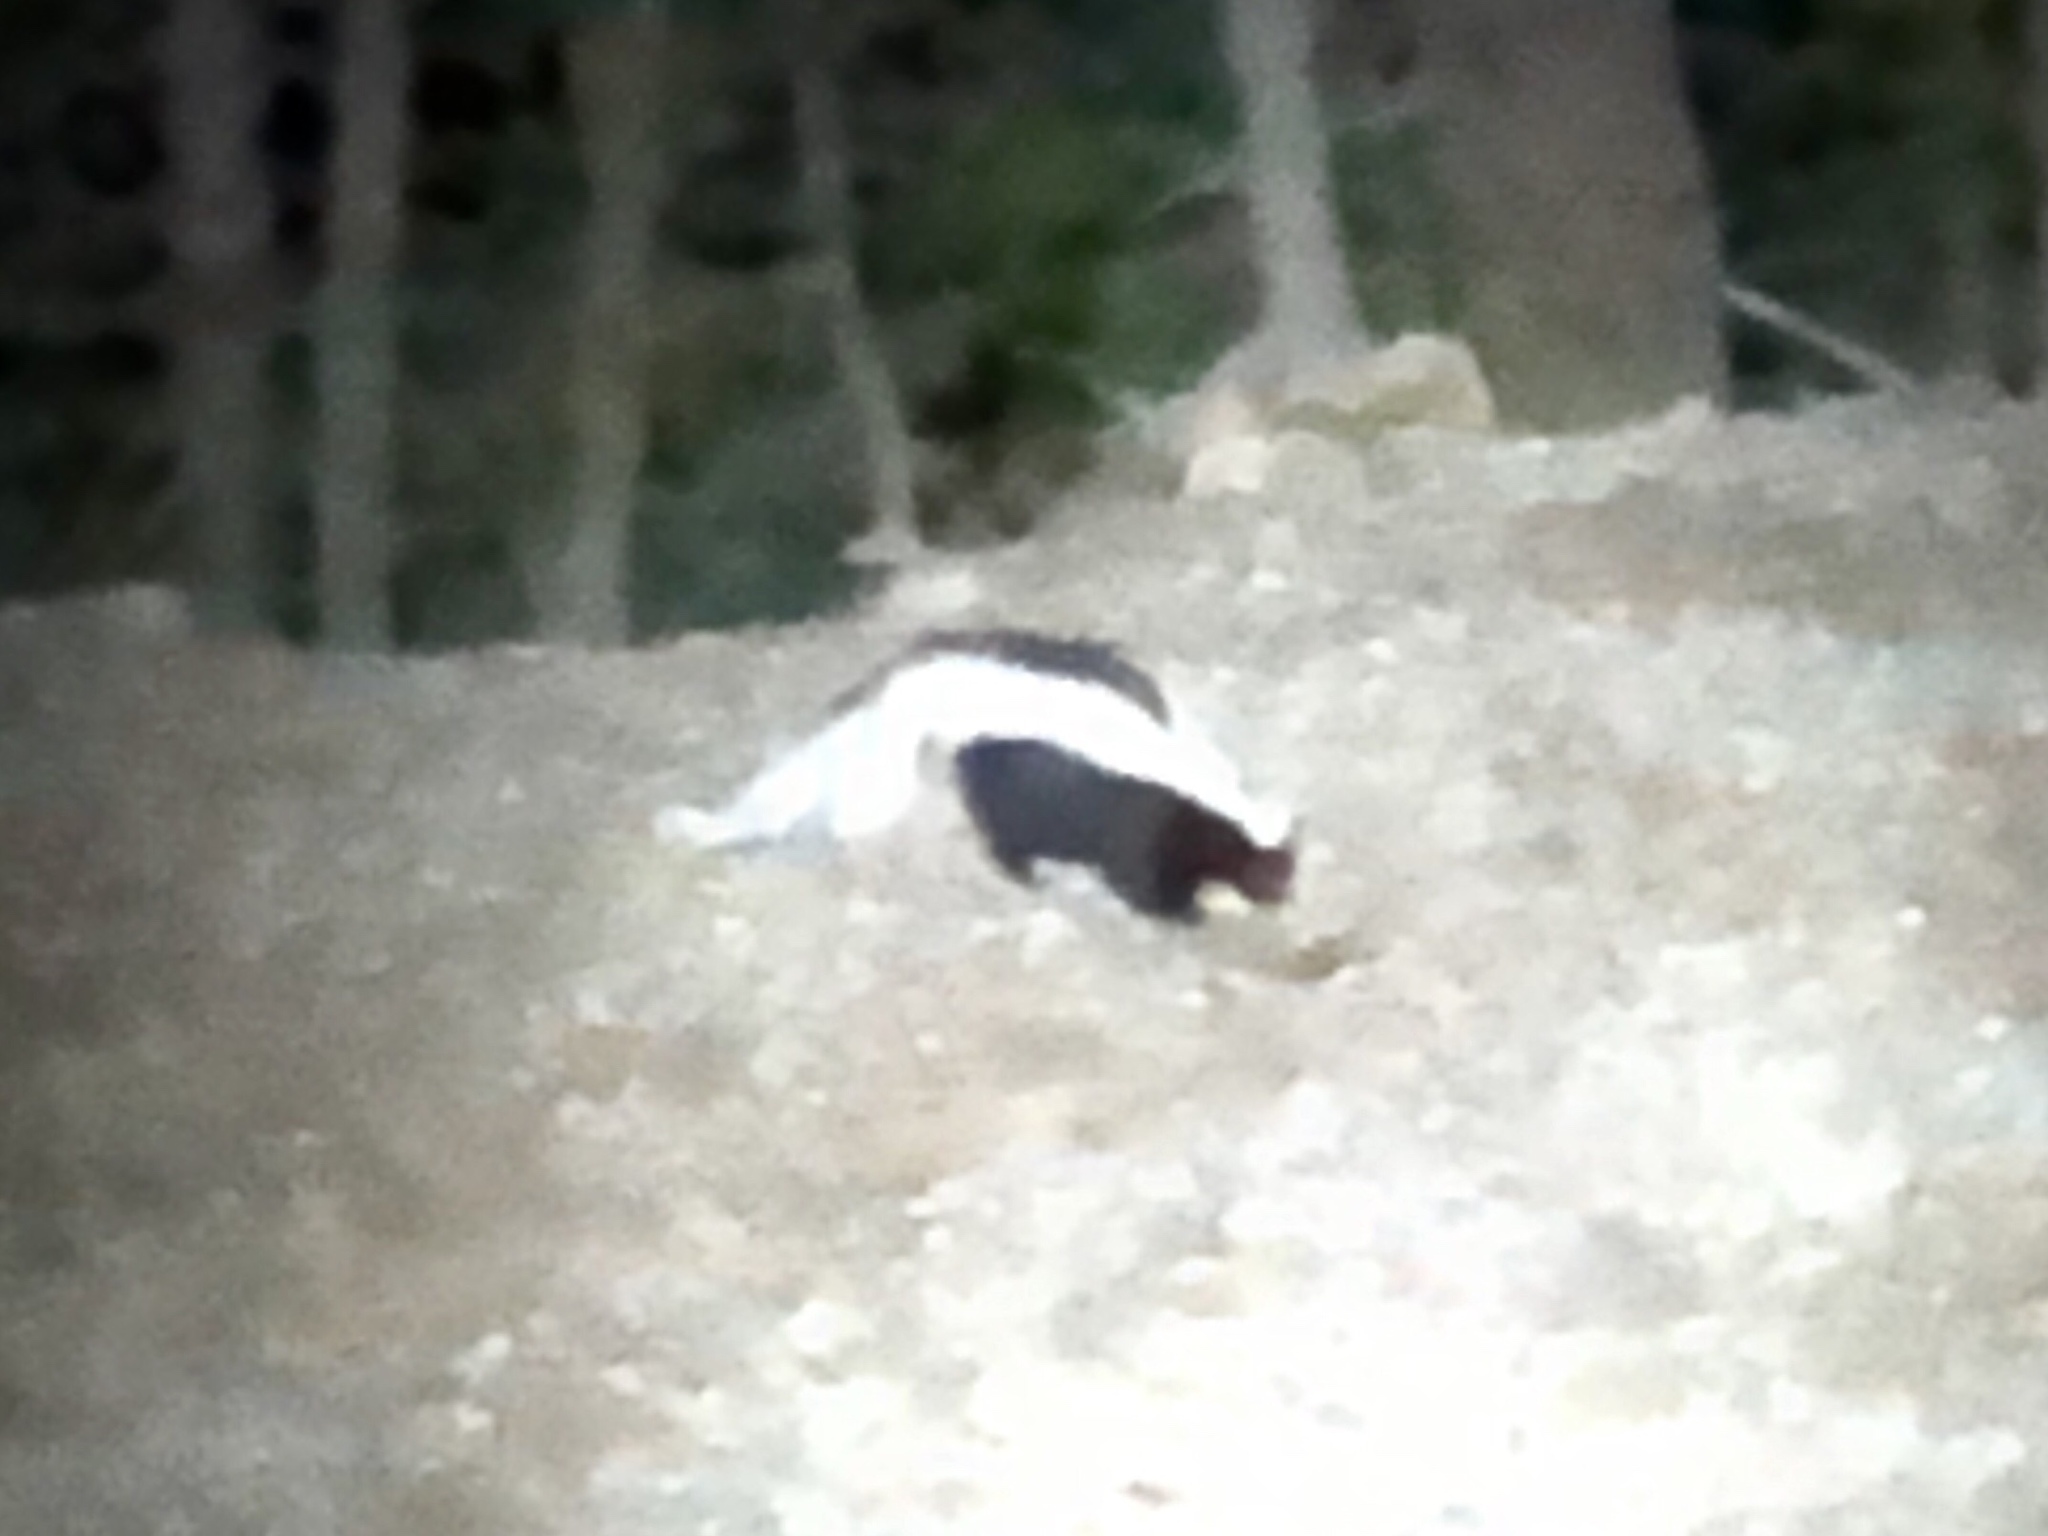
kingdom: Animalia
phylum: Chordata
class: Mammalia
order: Carnivora
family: Mephitidae
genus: Mephitis
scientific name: Mephitis mephitis
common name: Striped skunk
